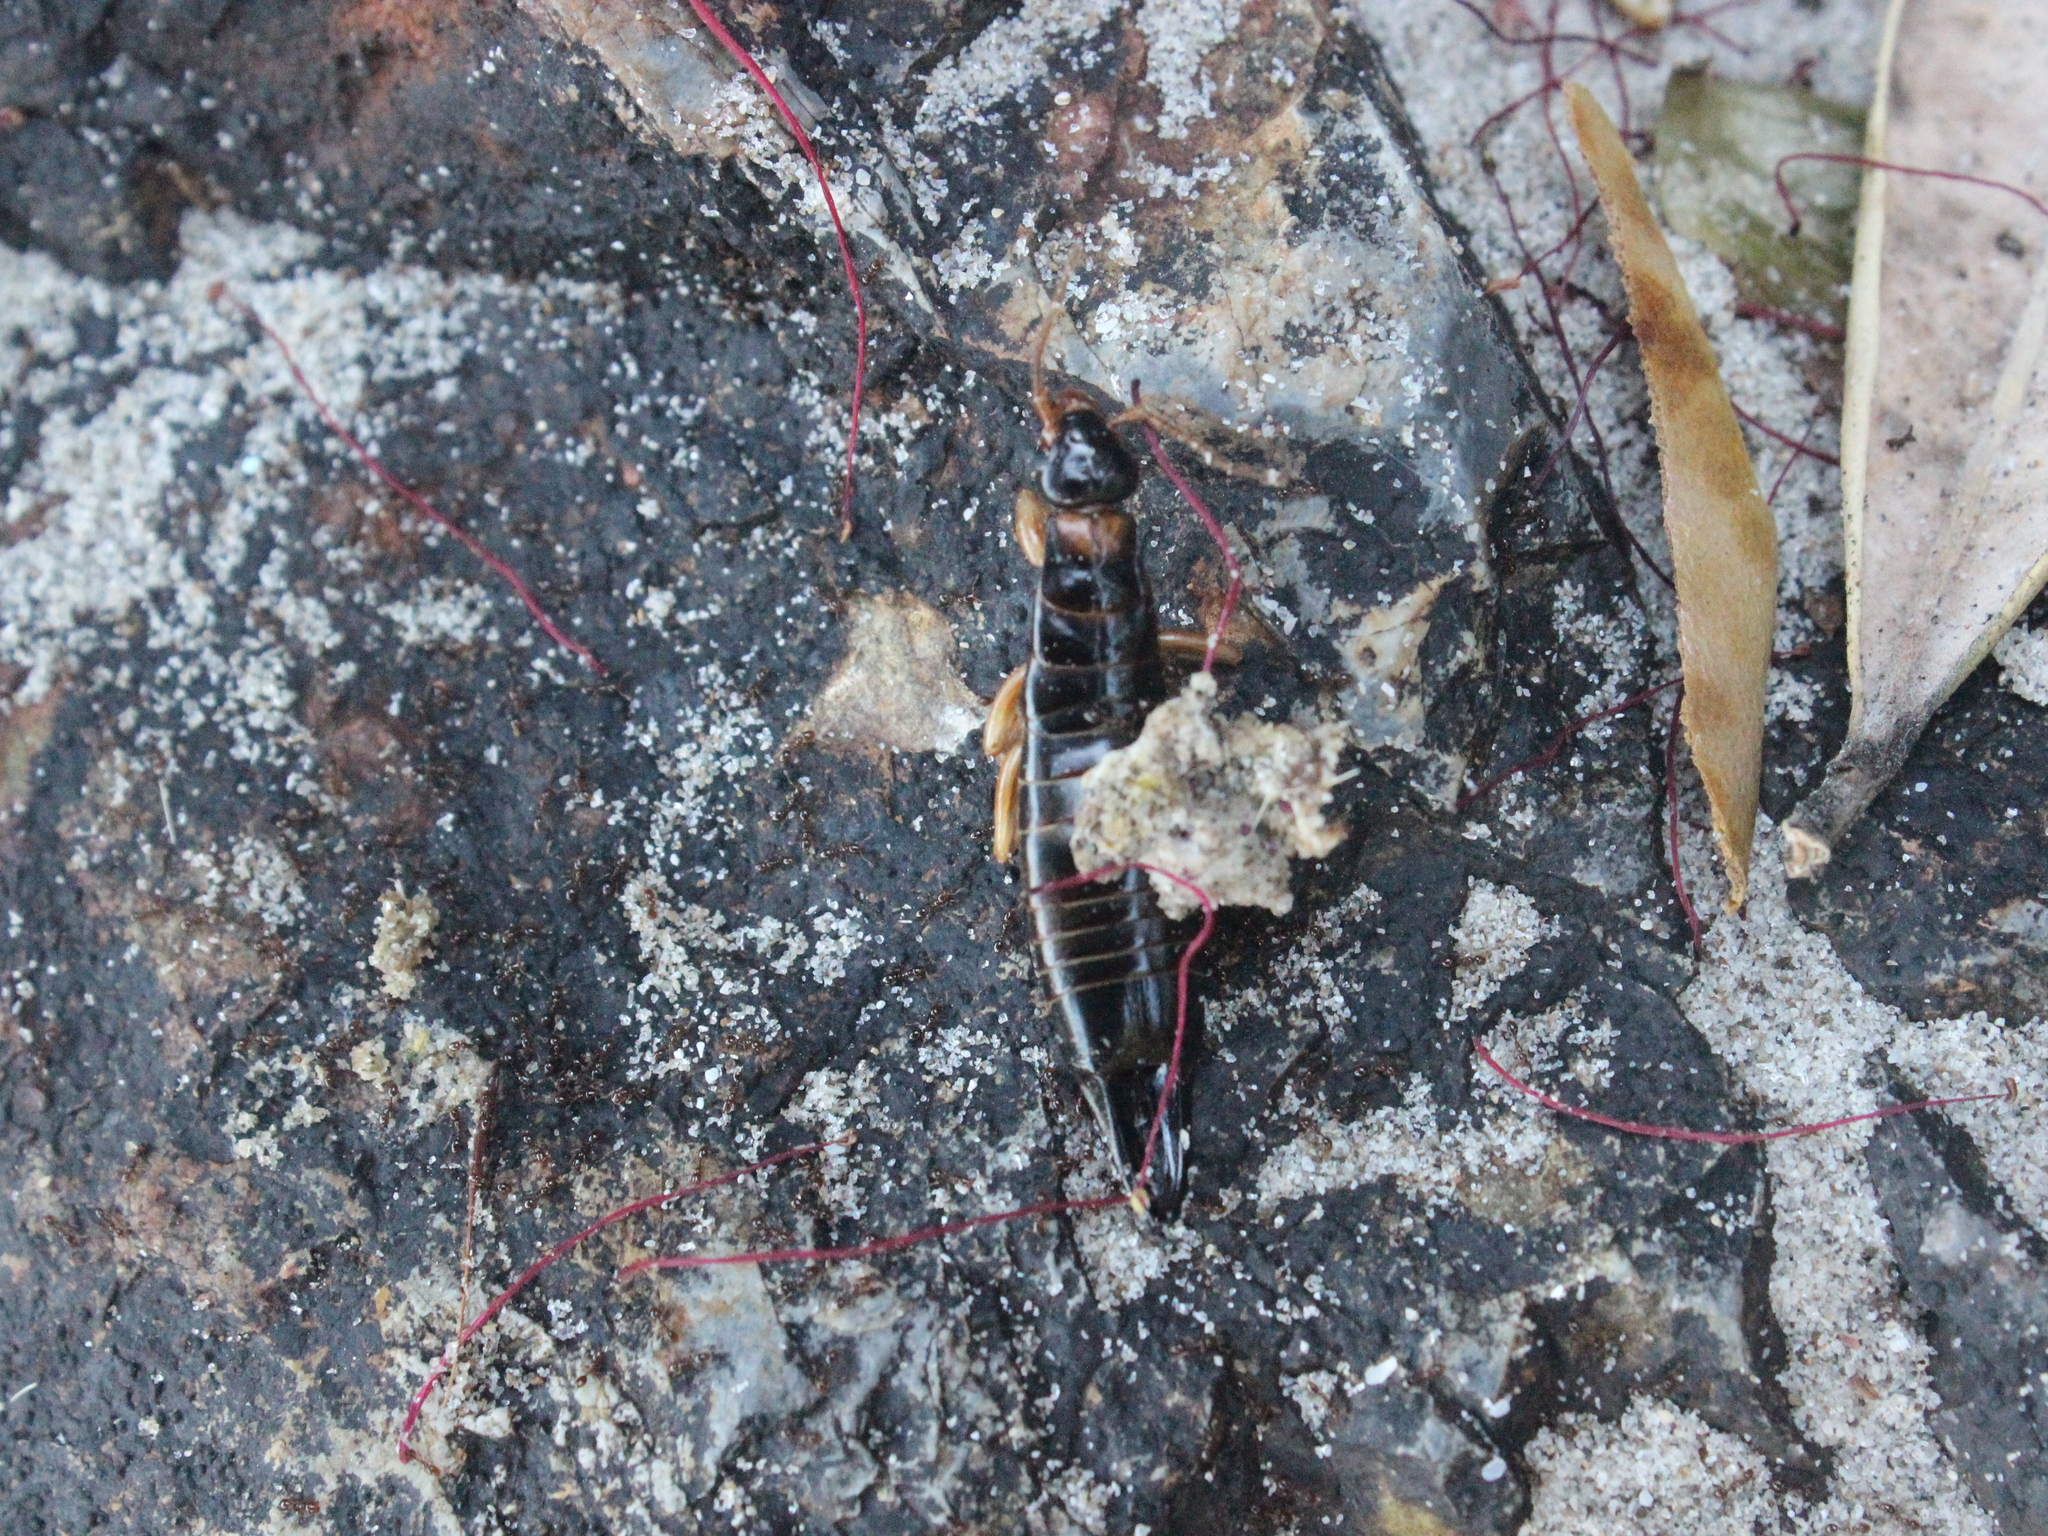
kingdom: Animalia
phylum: Arthropoda
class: Insecta
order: Dermaptera
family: Anisolabididae
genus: Anisolabis
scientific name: Anisolabis littorea
